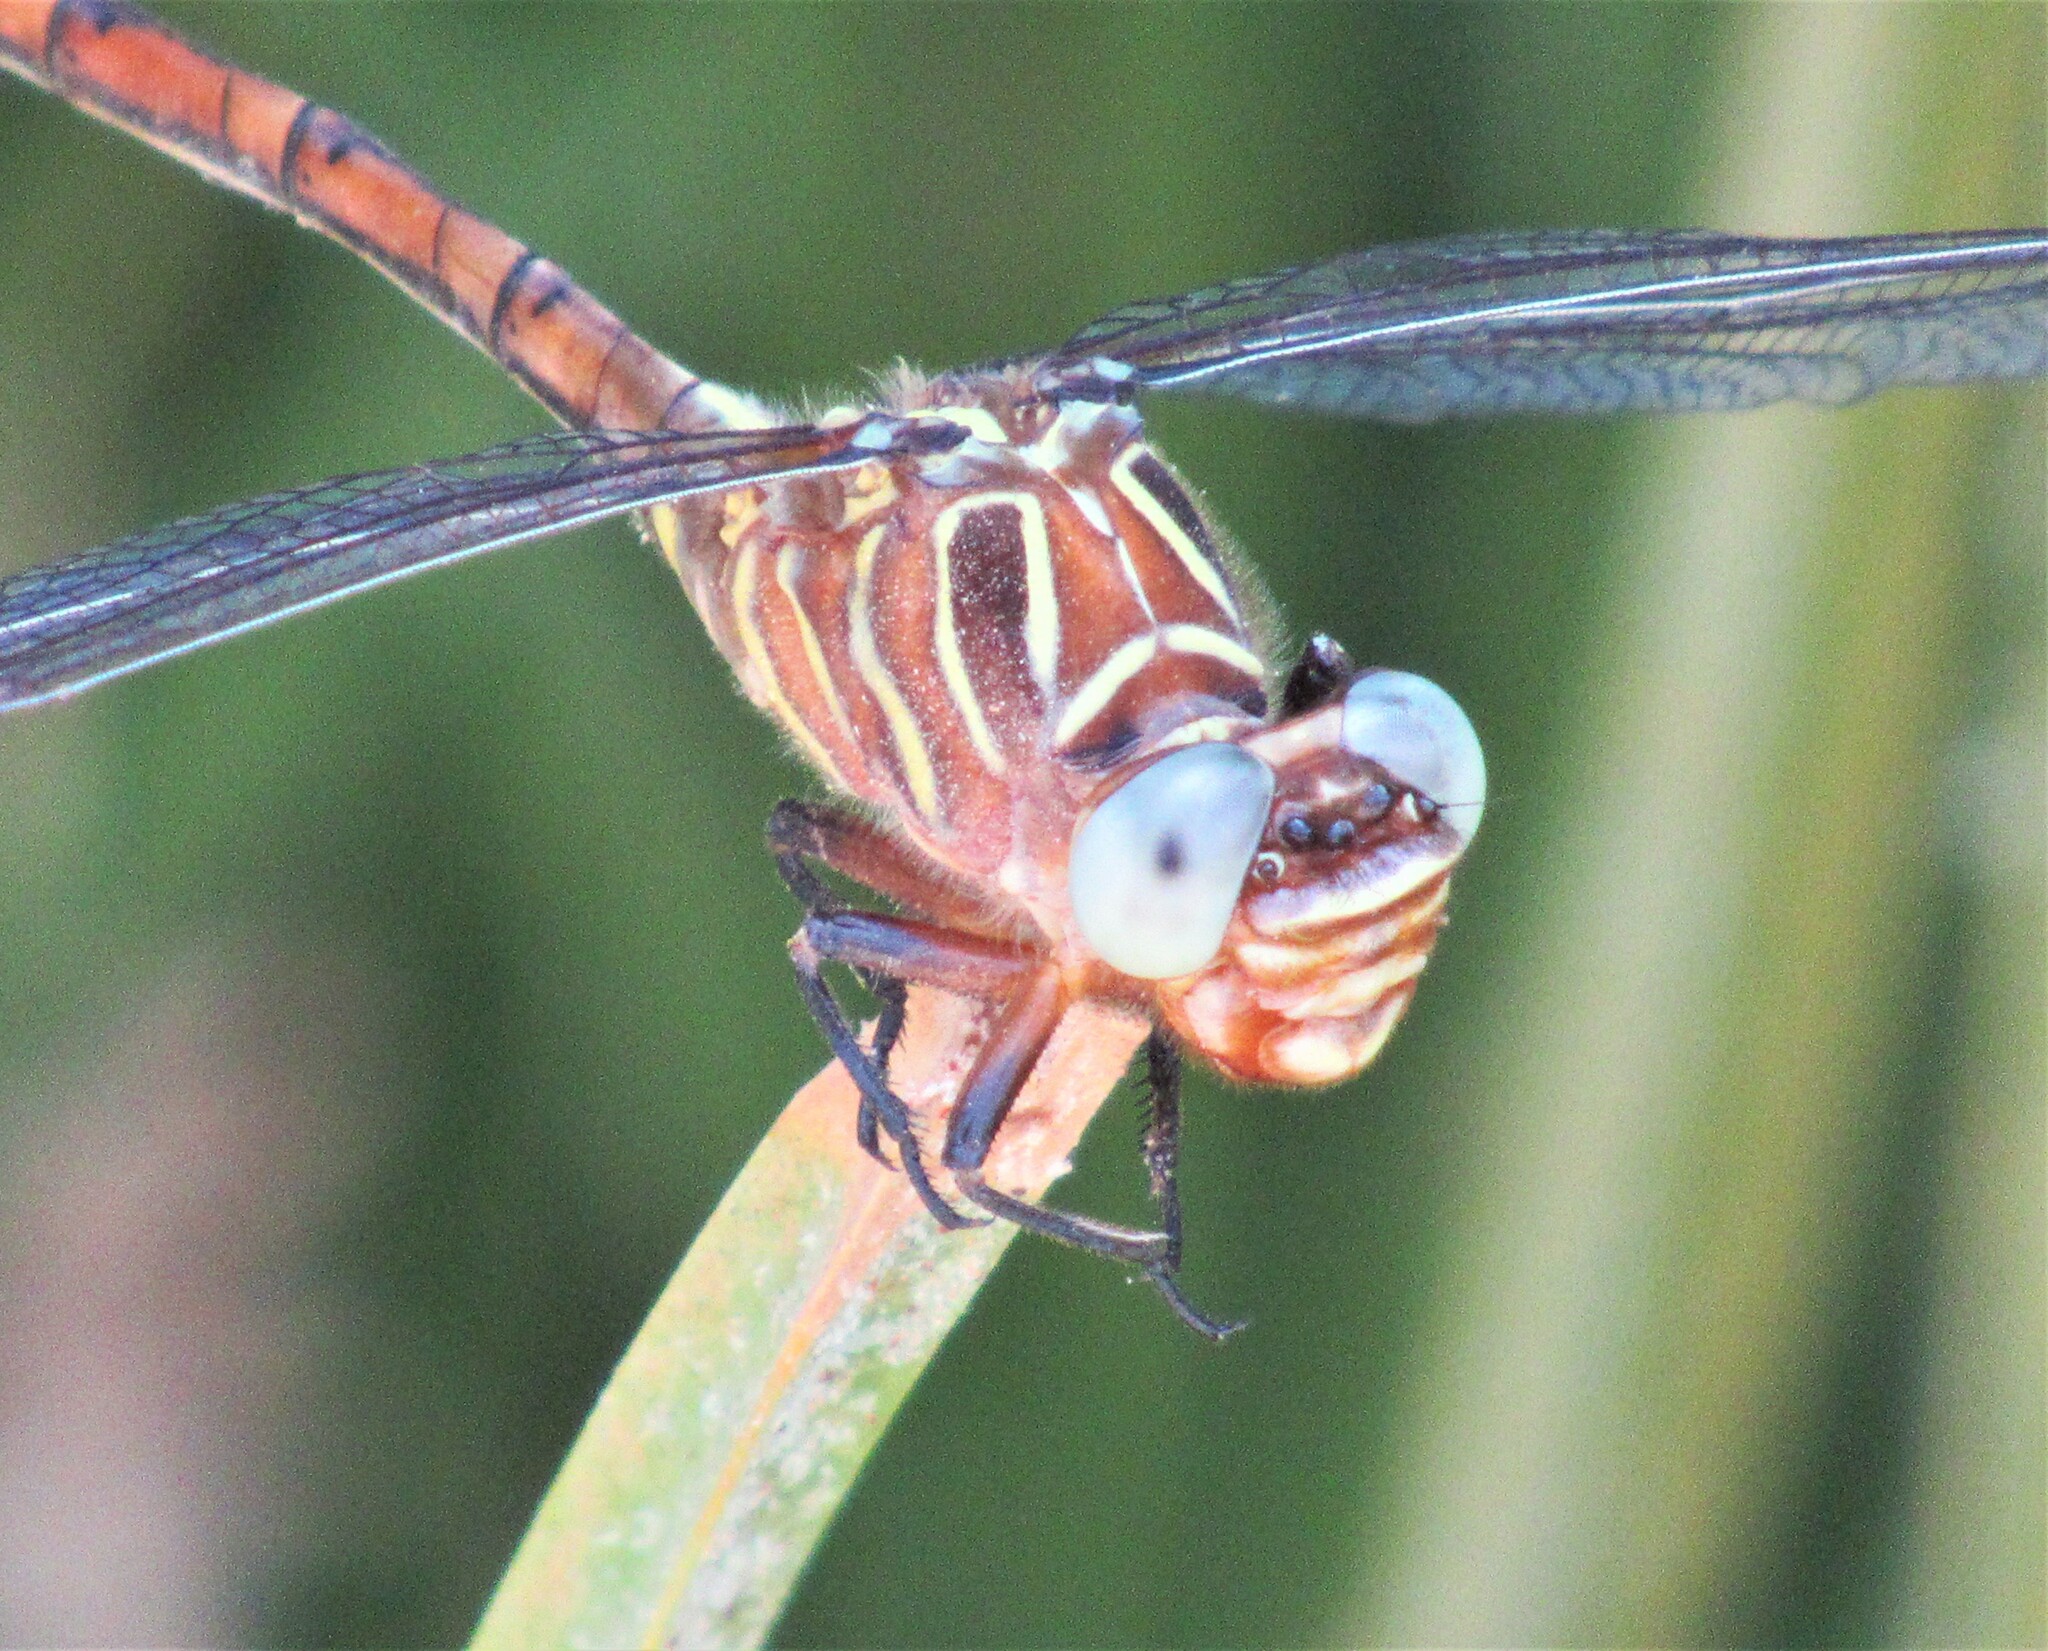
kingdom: Animalia
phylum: Arthropoda
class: Insecta
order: Odonata
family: Gomphidae
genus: Aphylla
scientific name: Aphylla protracta
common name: Narrow-striped forceptail
